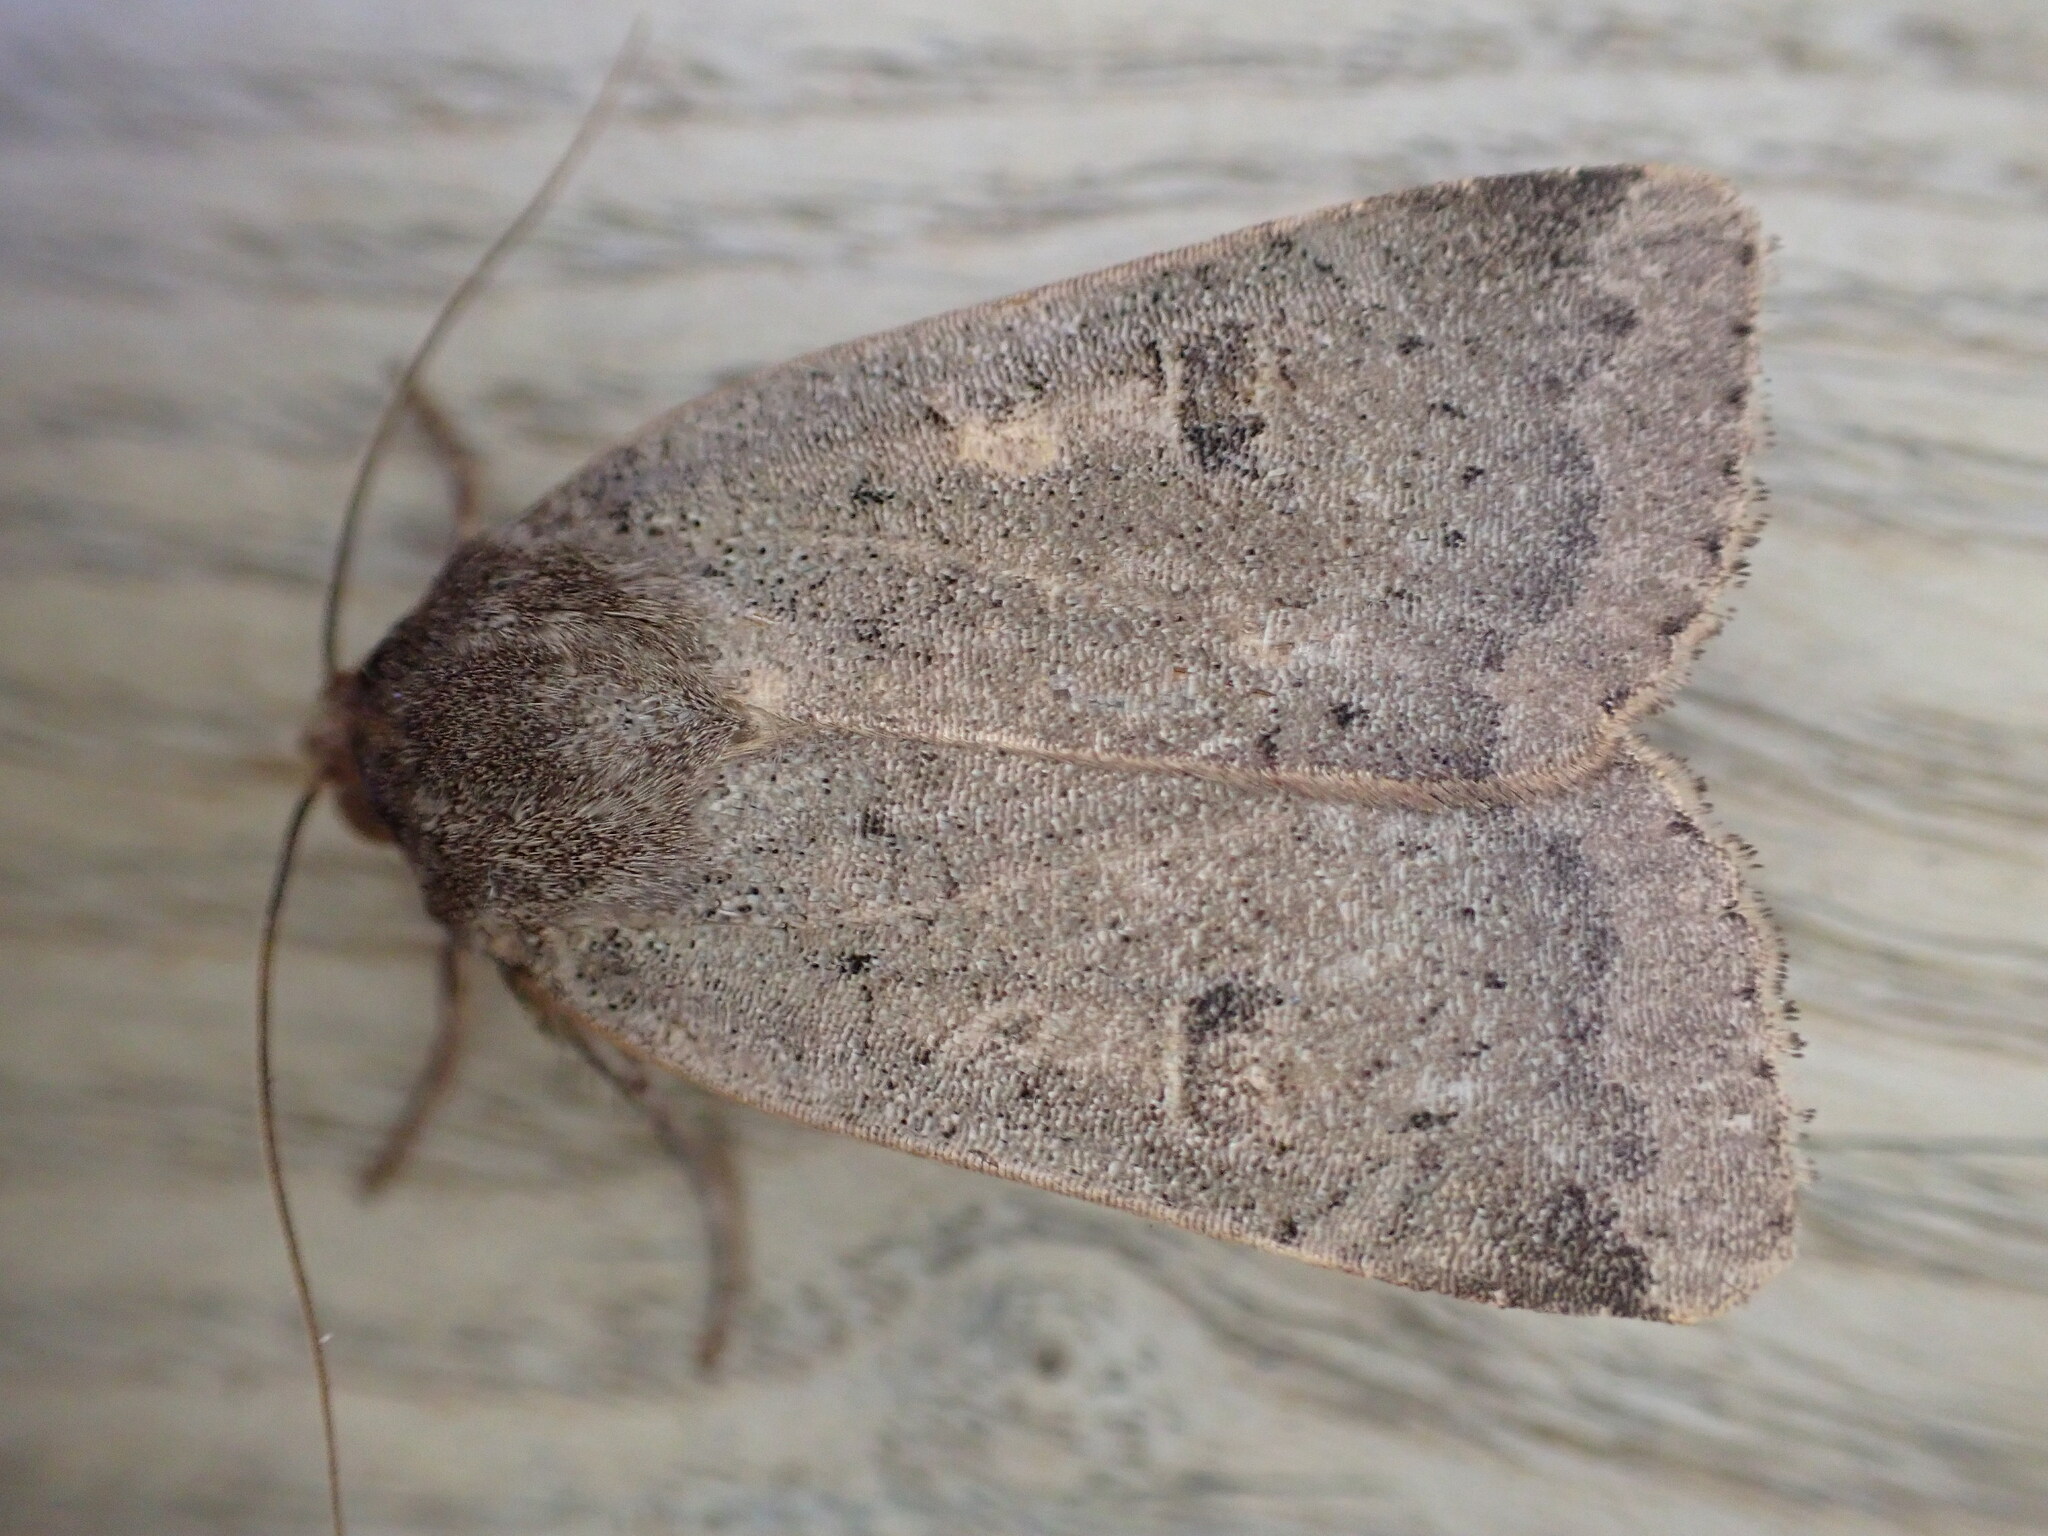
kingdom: Animalia
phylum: Arthropoda
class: Insecta
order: Lepidoptera
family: Noctuidae
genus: Noctua
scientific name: Noctua comes
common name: Lesser yellow underwing
